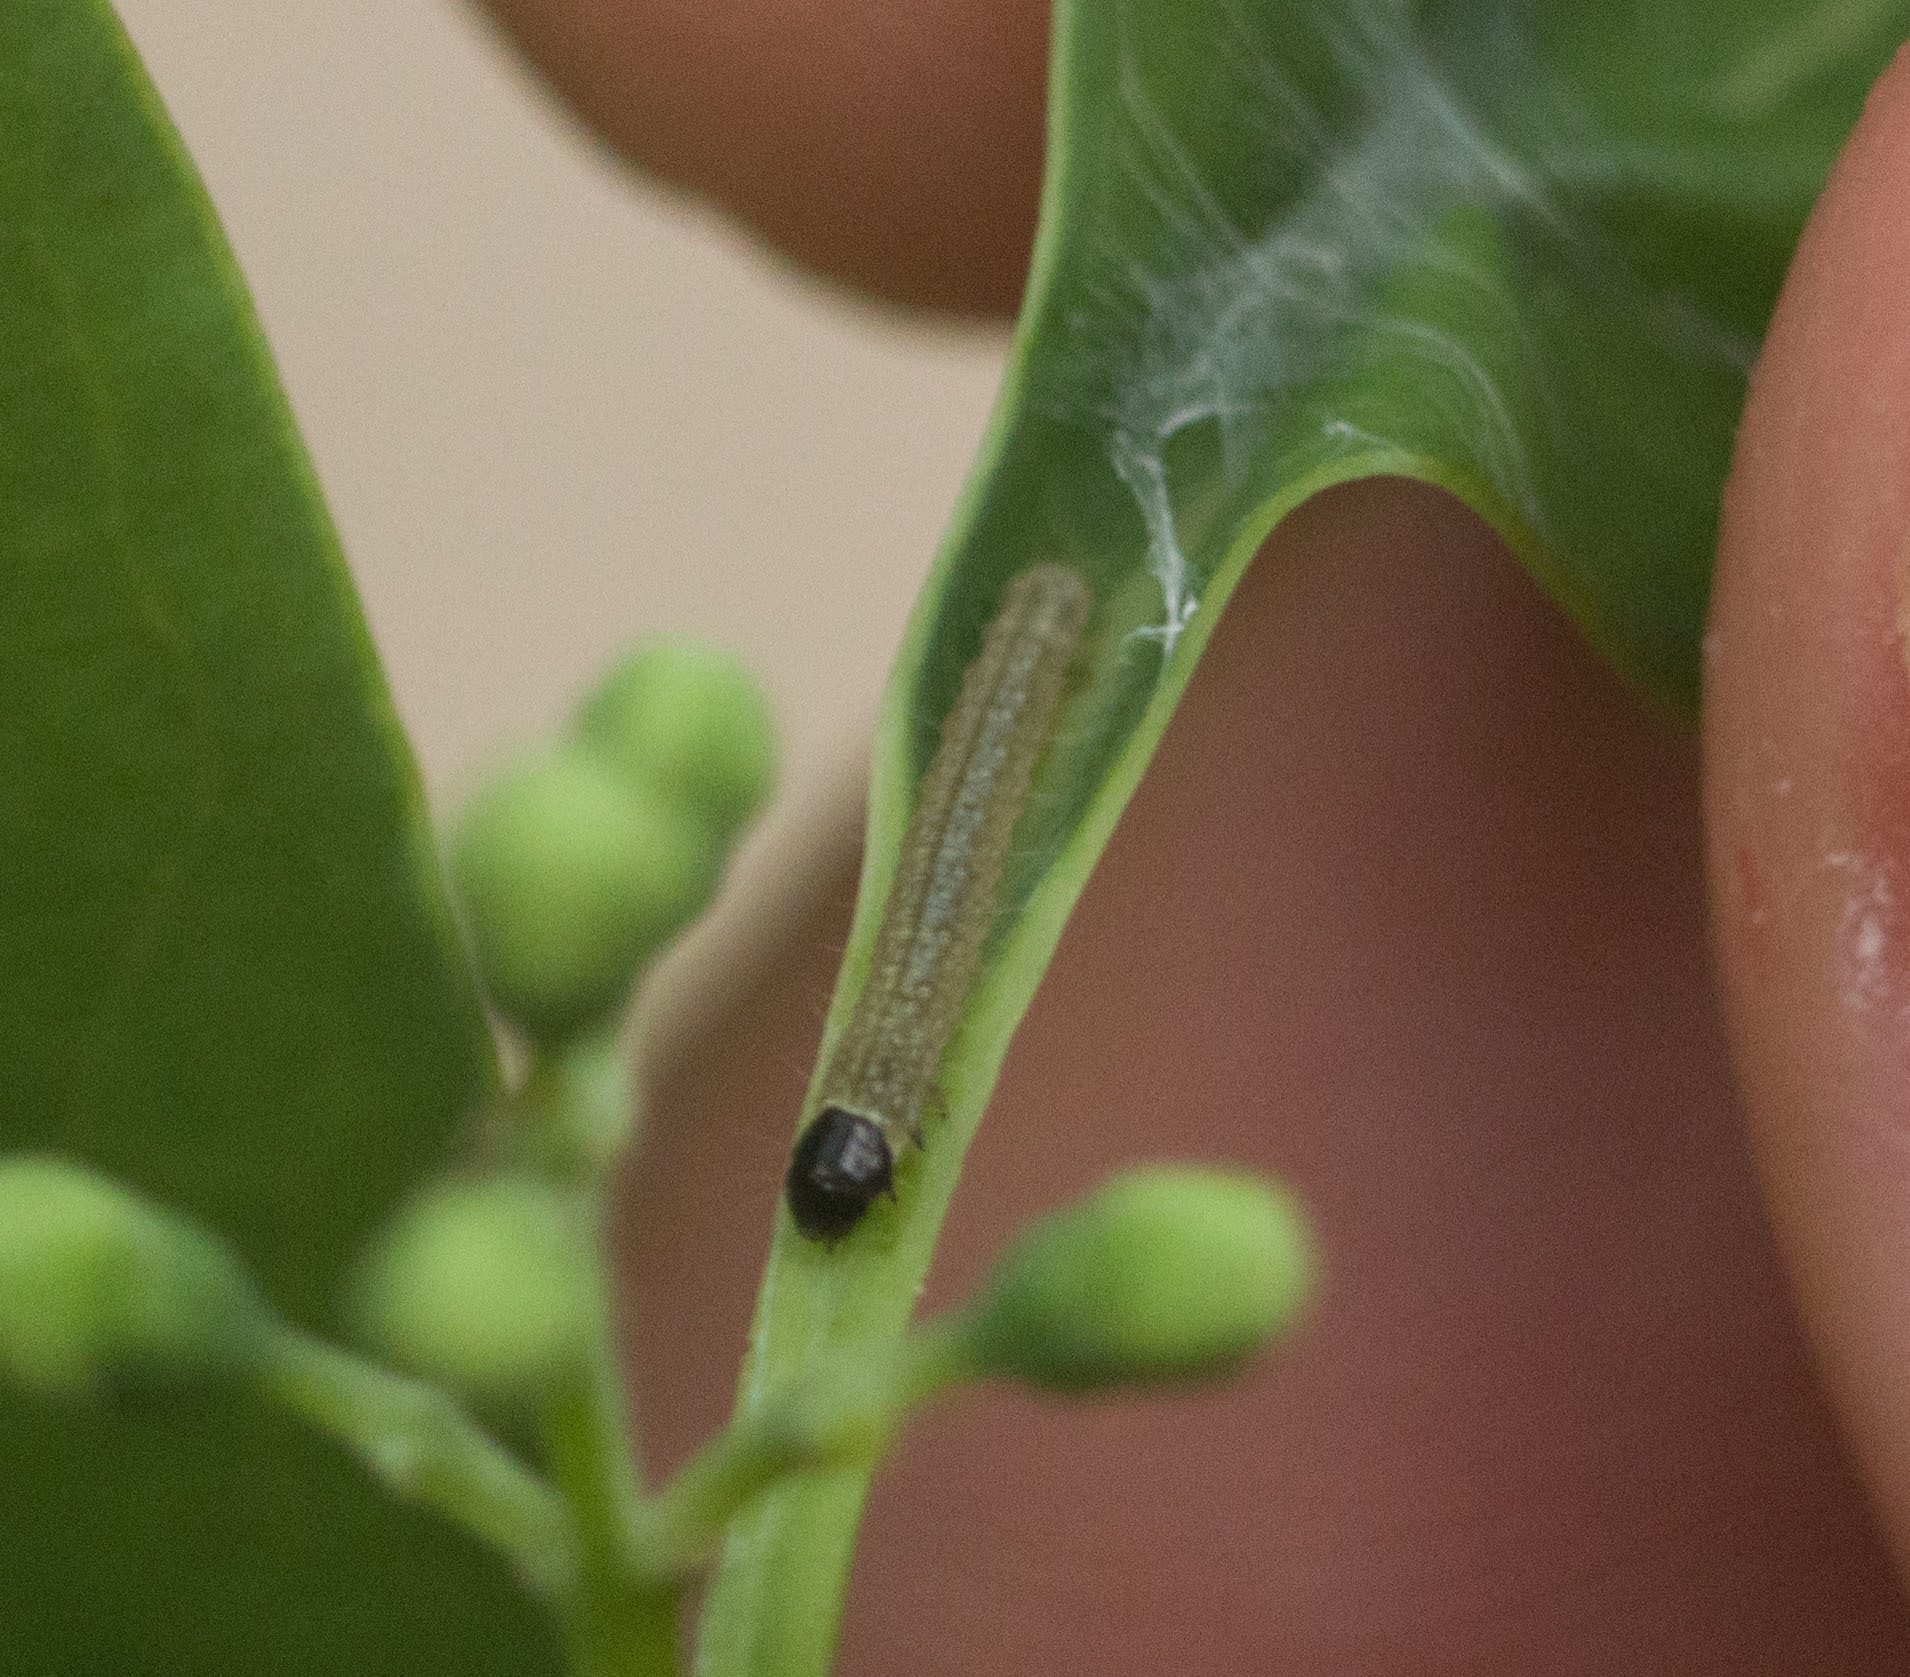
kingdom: Animalia
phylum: Arthropoda
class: Insecta
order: Lepidoptera
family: Tortricidae
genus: Platynota
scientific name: Platynota stultana
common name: Omnivorous leafroller
